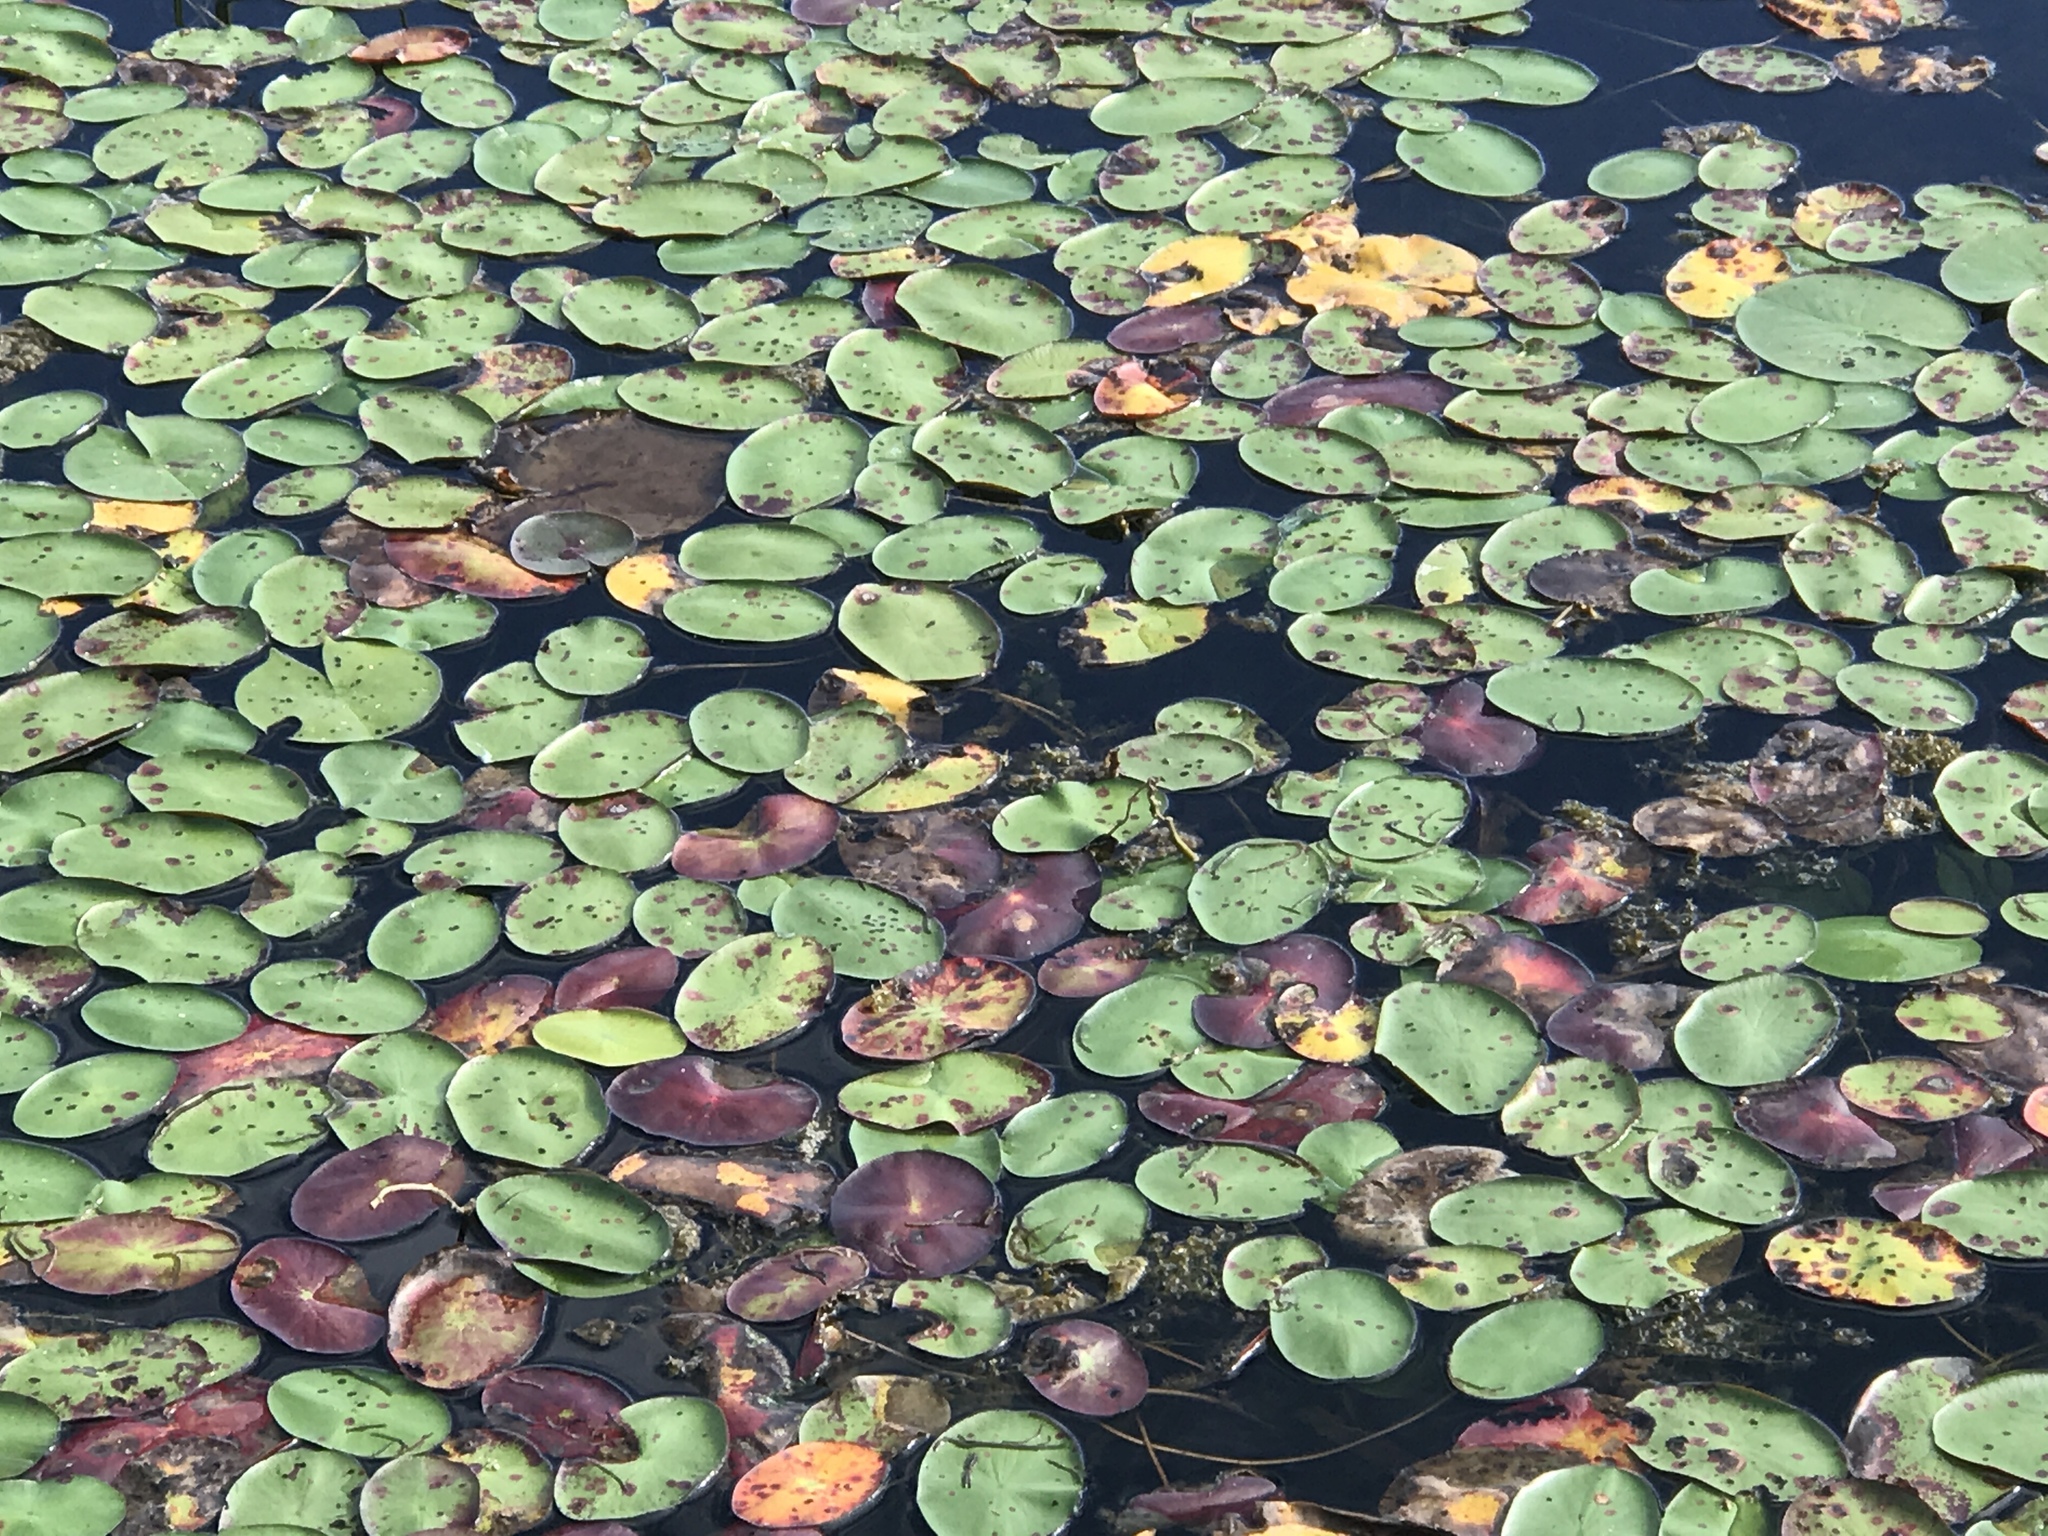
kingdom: Plantae
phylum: Tracheophyta
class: Magnoliopsida
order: Nymphaeales
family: Cabombaceae
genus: Brasenia
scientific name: Brasenia schreberi
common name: Water-shield
